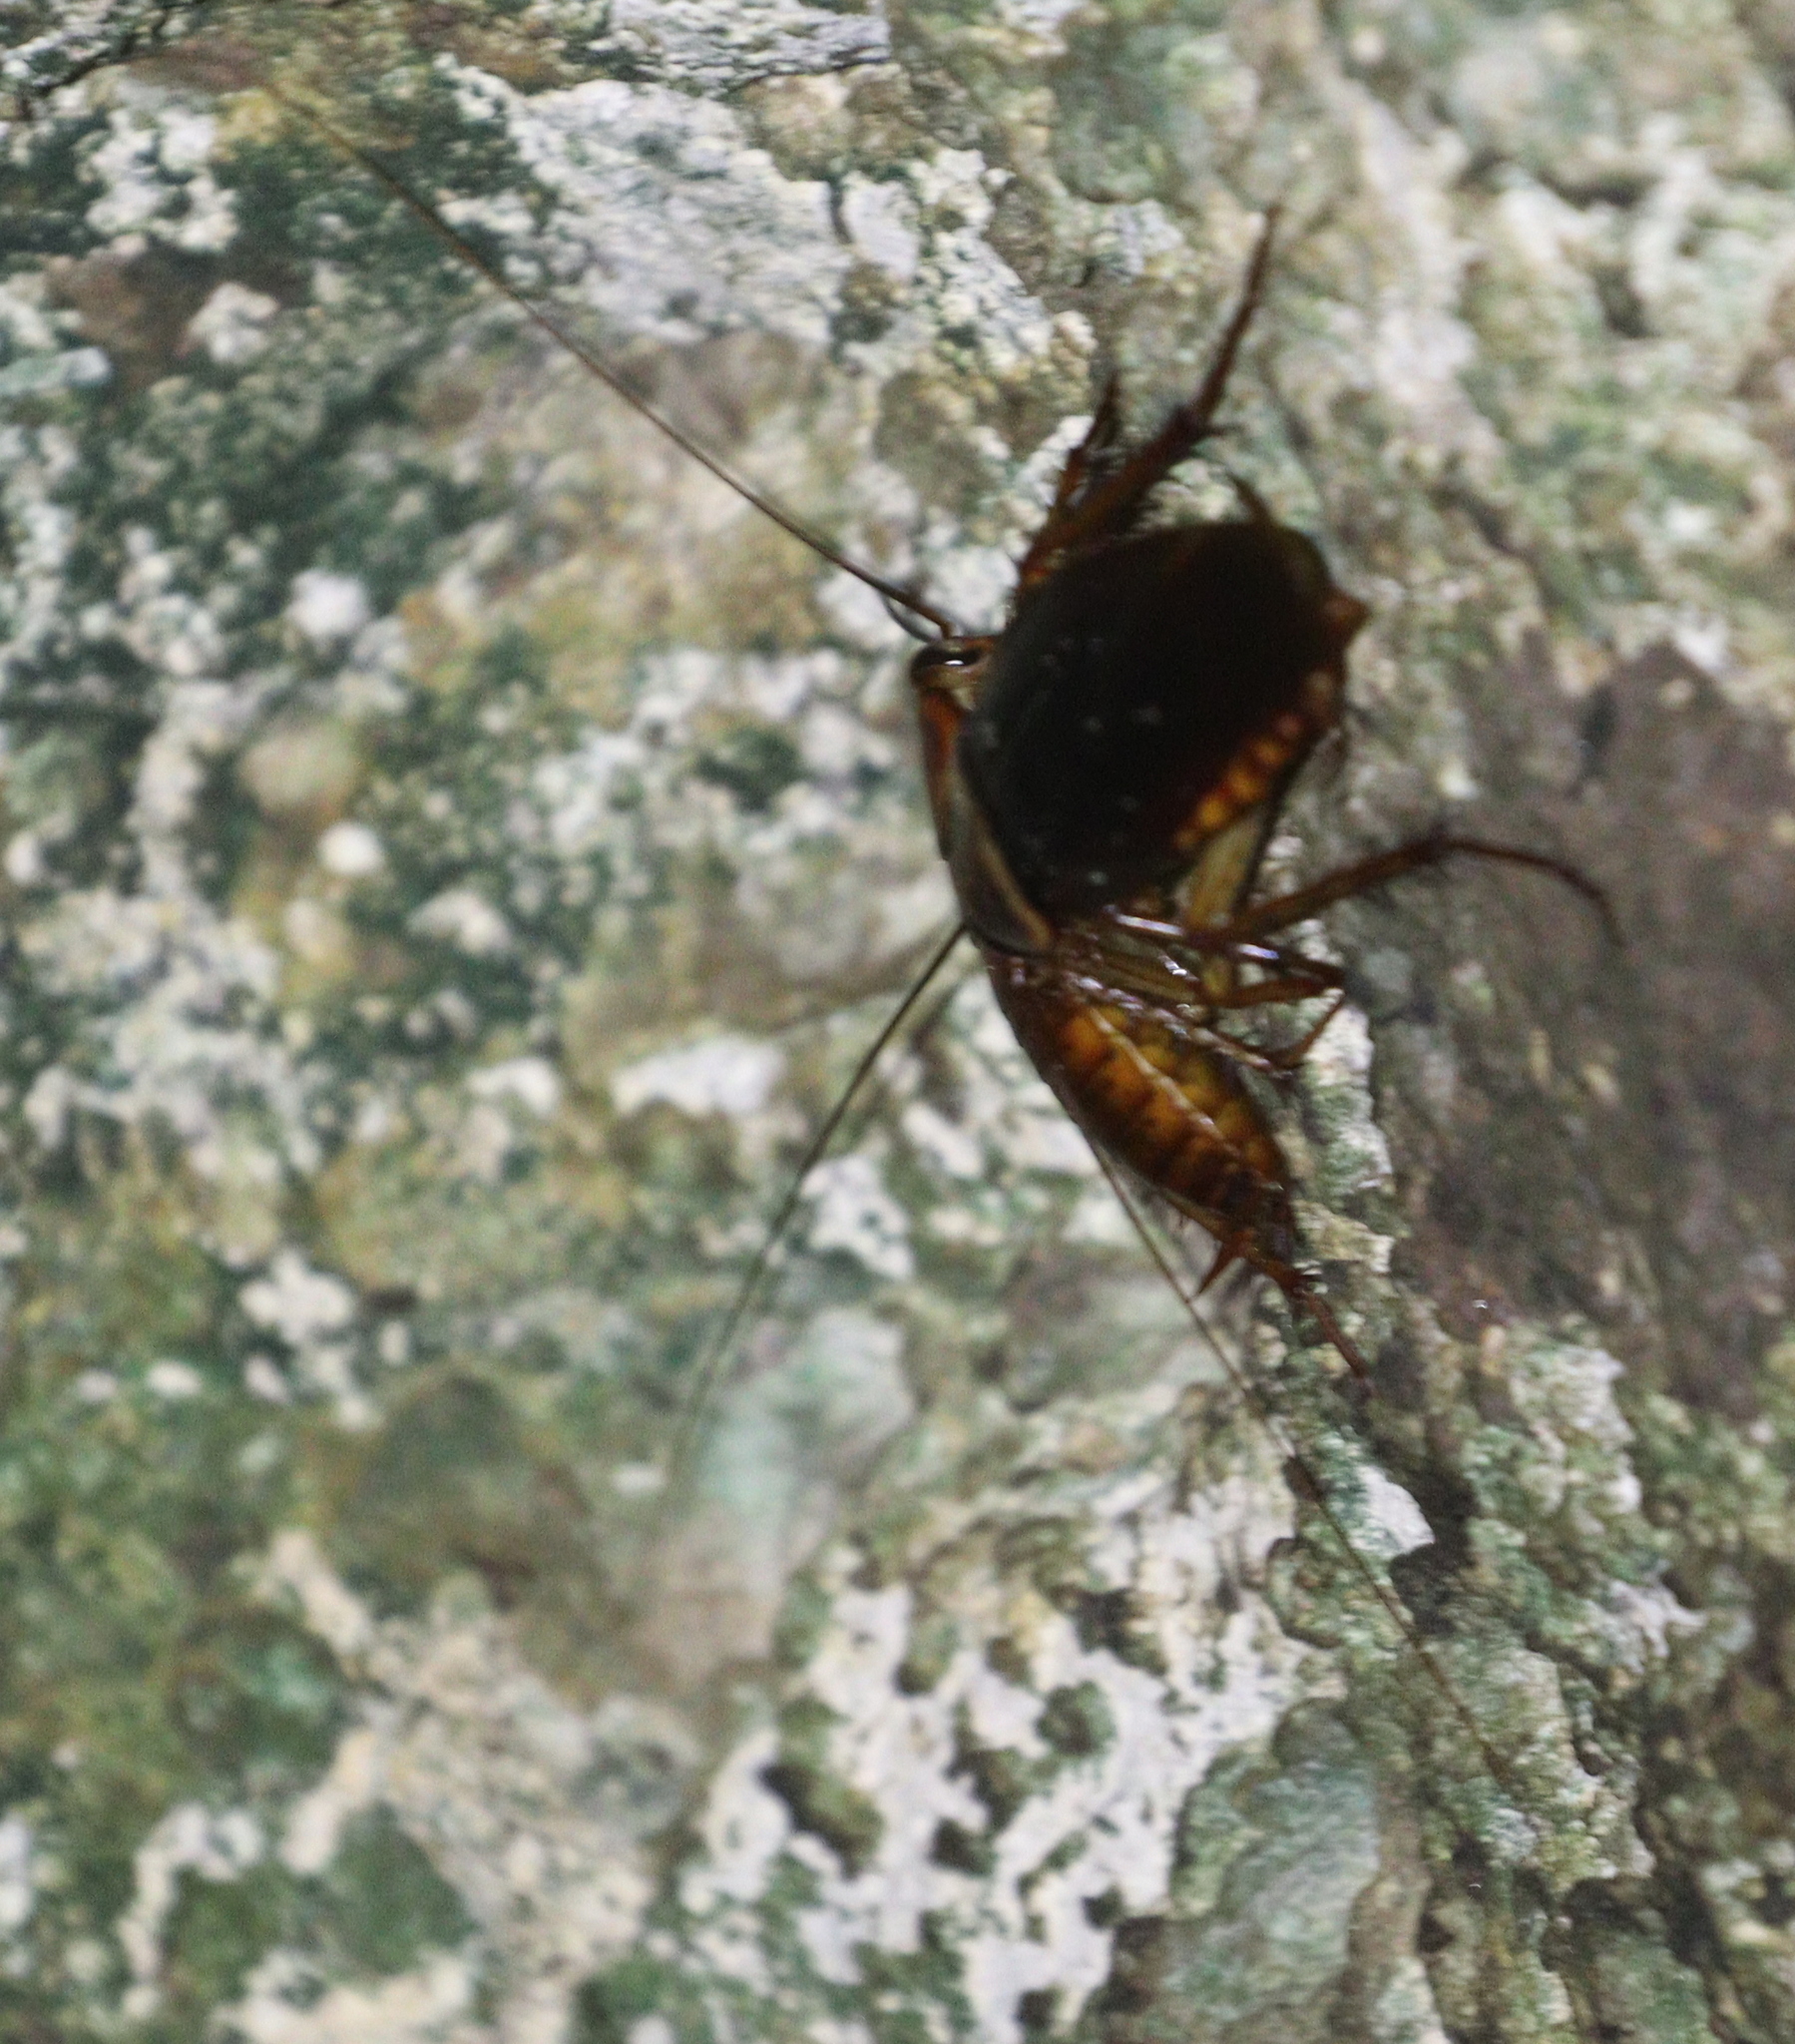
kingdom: Animalia
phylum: Arthropoda
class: Insecta
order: Blattodea
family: Blattidae
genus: Periplaneta
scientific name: Periplaneta americana
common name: American cockroach
